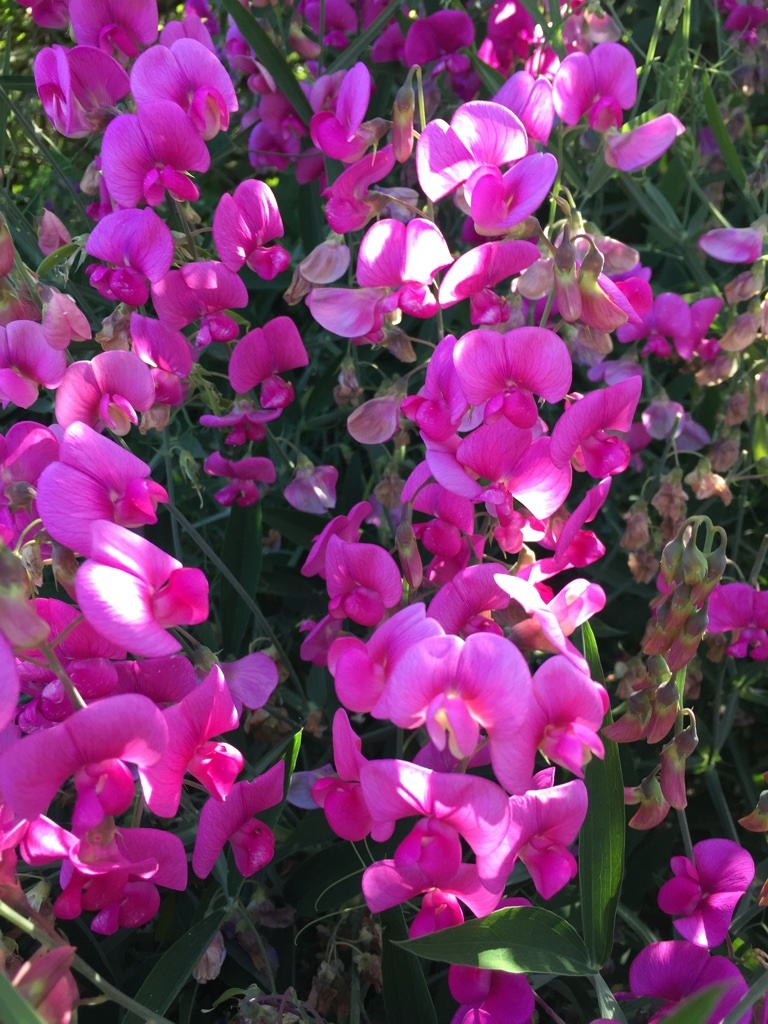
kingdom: Plantae
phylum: Tracheophyta
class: Magnoliopsida
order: Fabales
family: Fabaceae
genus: Lathyrus
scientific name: Lathyrus latifolius
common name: Perennial pea
